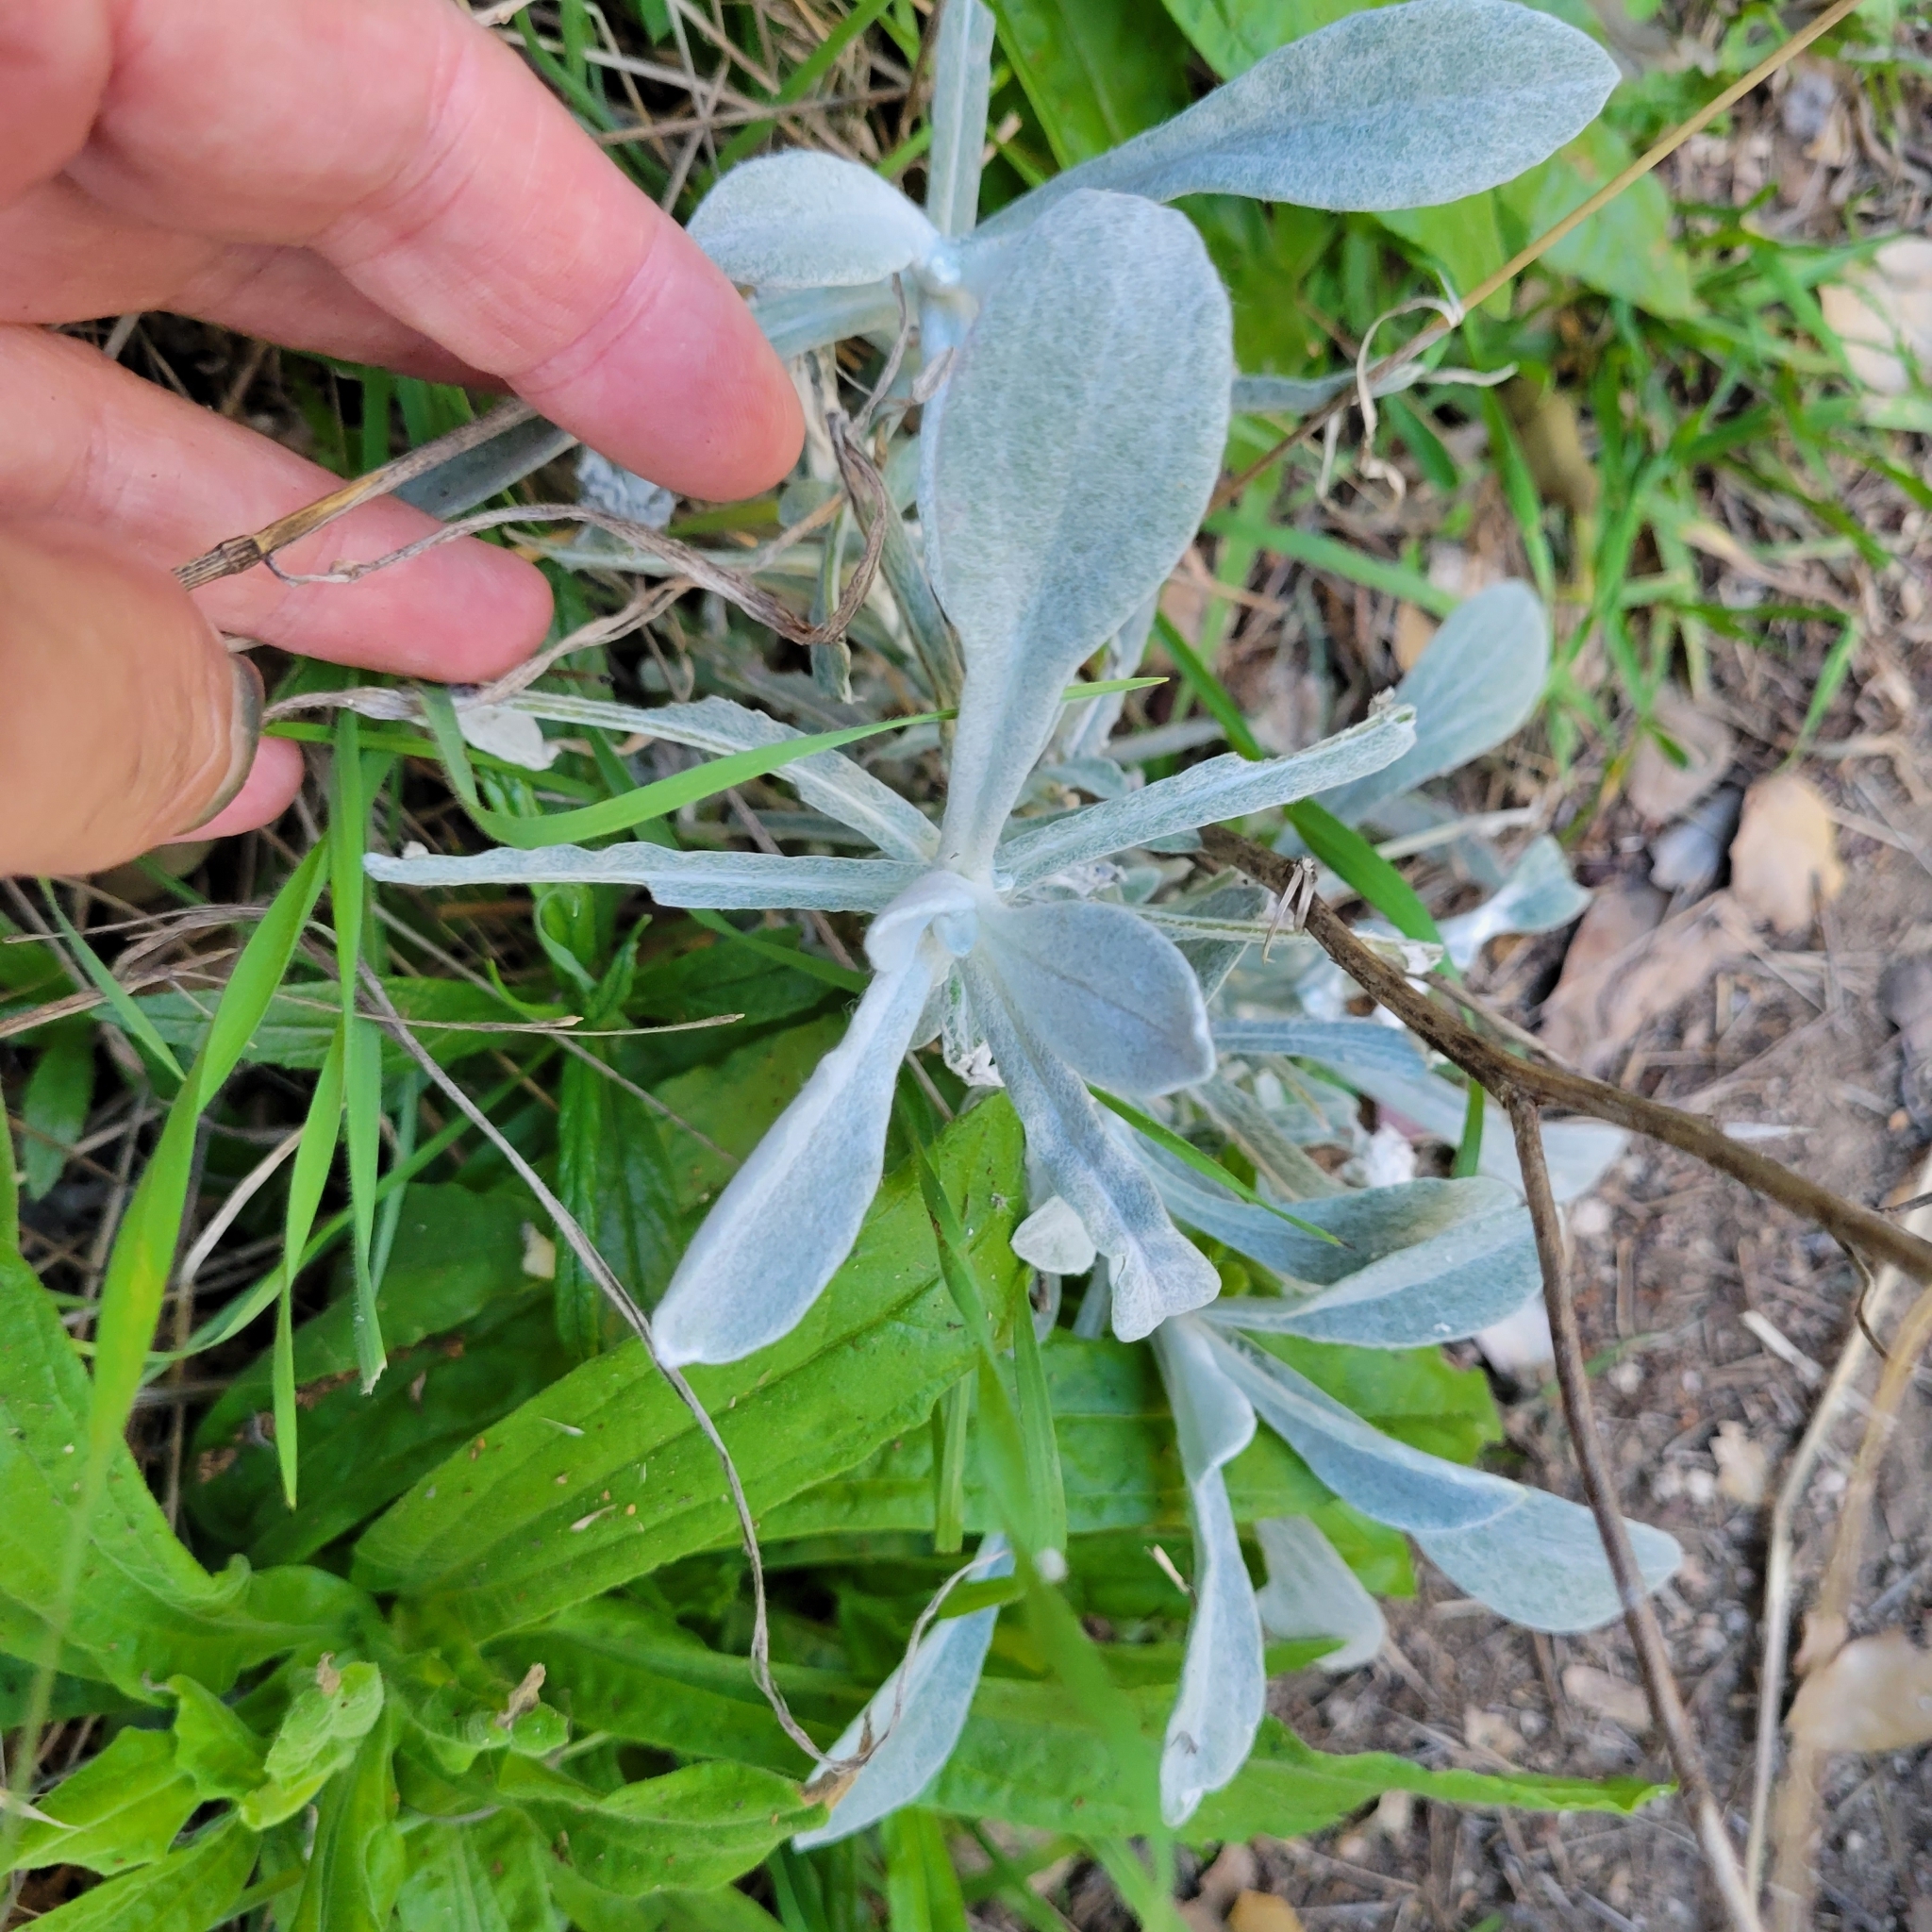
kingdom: Plantae
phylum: Tracheophyta
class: Magnoliopsida
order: Asterales
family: Asteraceae
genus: Pseudognaphalium
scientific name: Pseudognaphalium microcephalum
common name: San diego rabbit-tobacco
